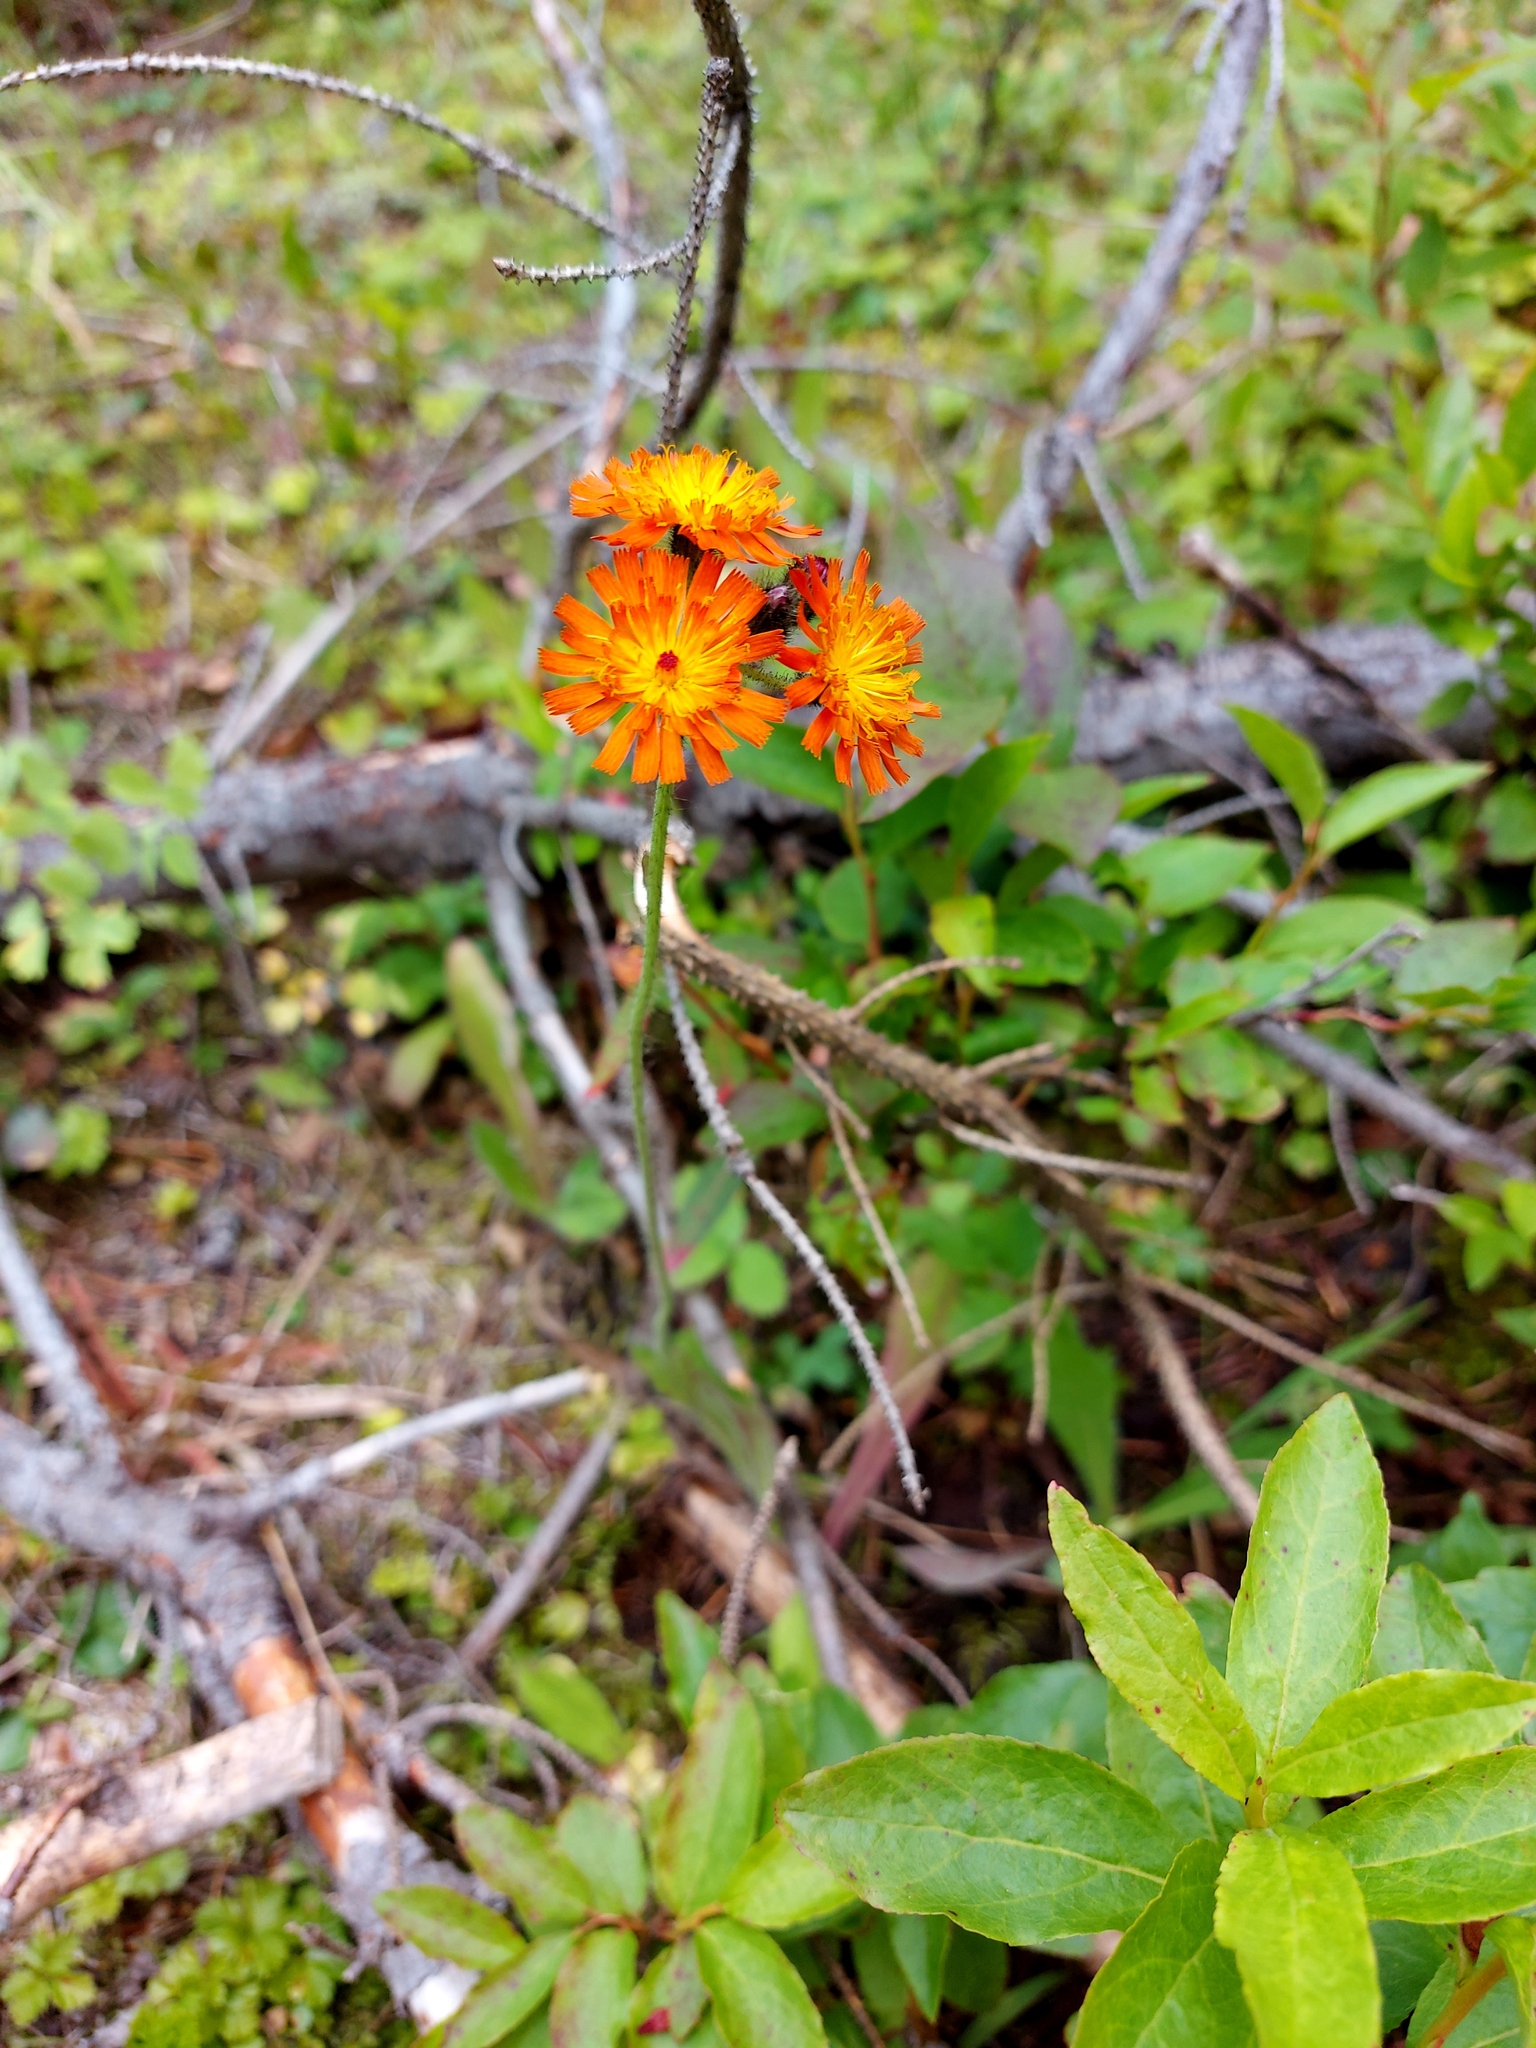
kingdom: Plantae
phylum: Tracheophyta
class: Magnoliopsida
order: Asterales
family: Asteraceae
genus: Pilosella
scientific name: Pilosella aurantiaca
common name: Fox-and-cubs
